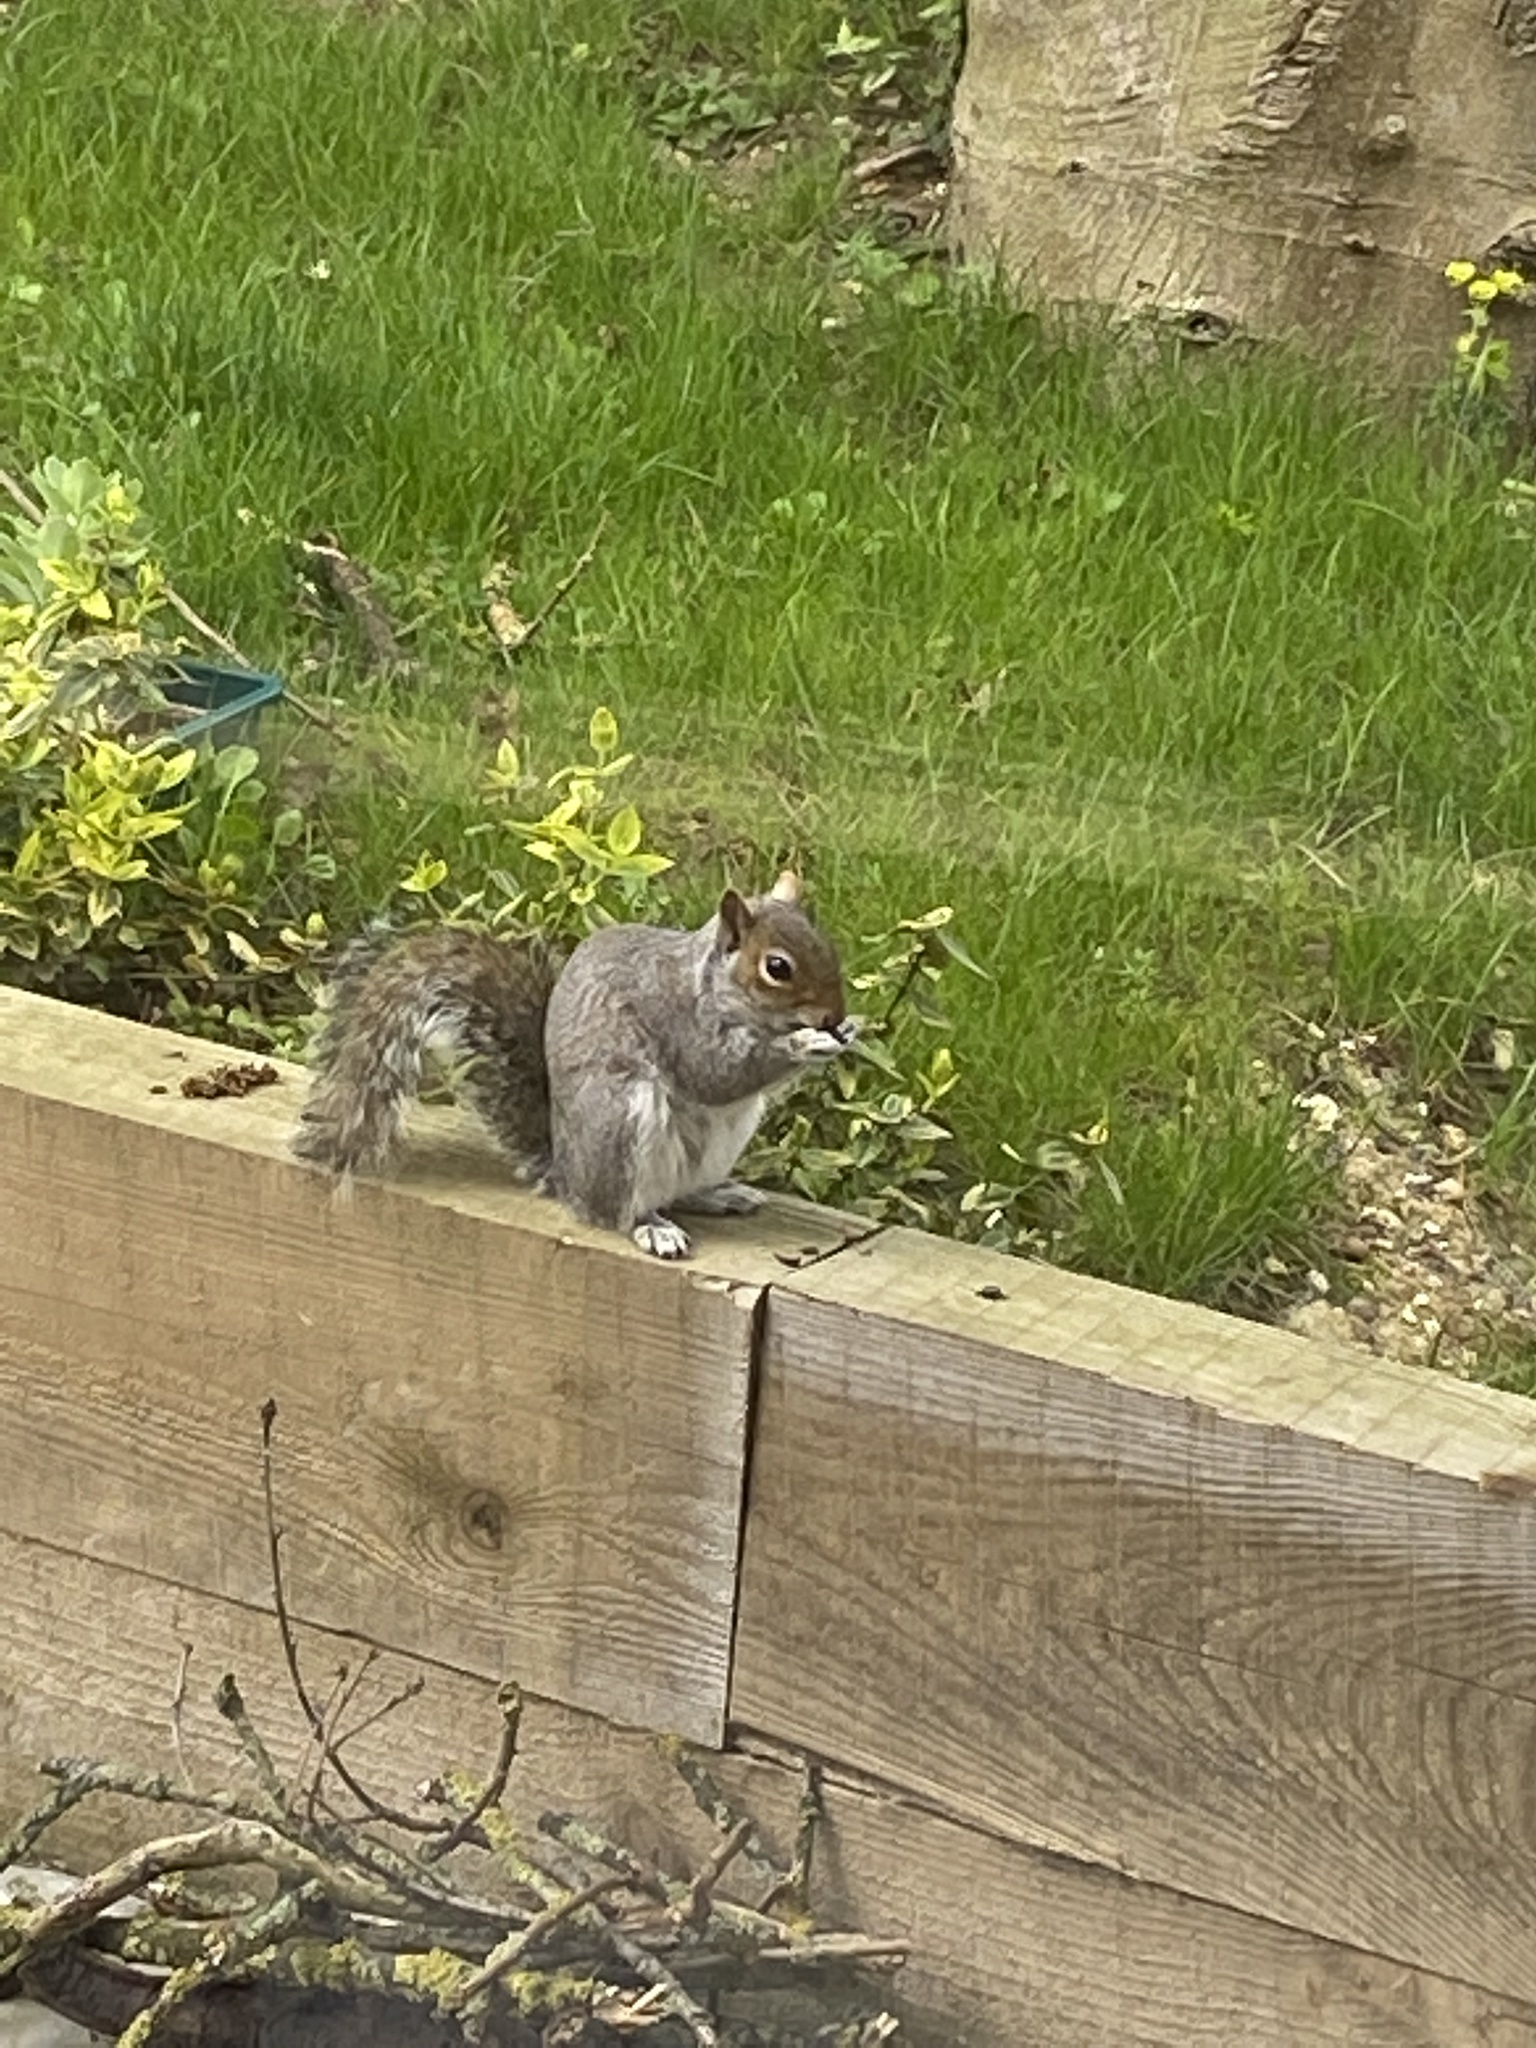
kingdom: Animalia
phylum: Chordata
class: Mammalia
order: Rodentia
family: Sciuridae
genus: Sciurus
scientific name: Sciurus carolinensis
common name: Eastern gray squirrel
